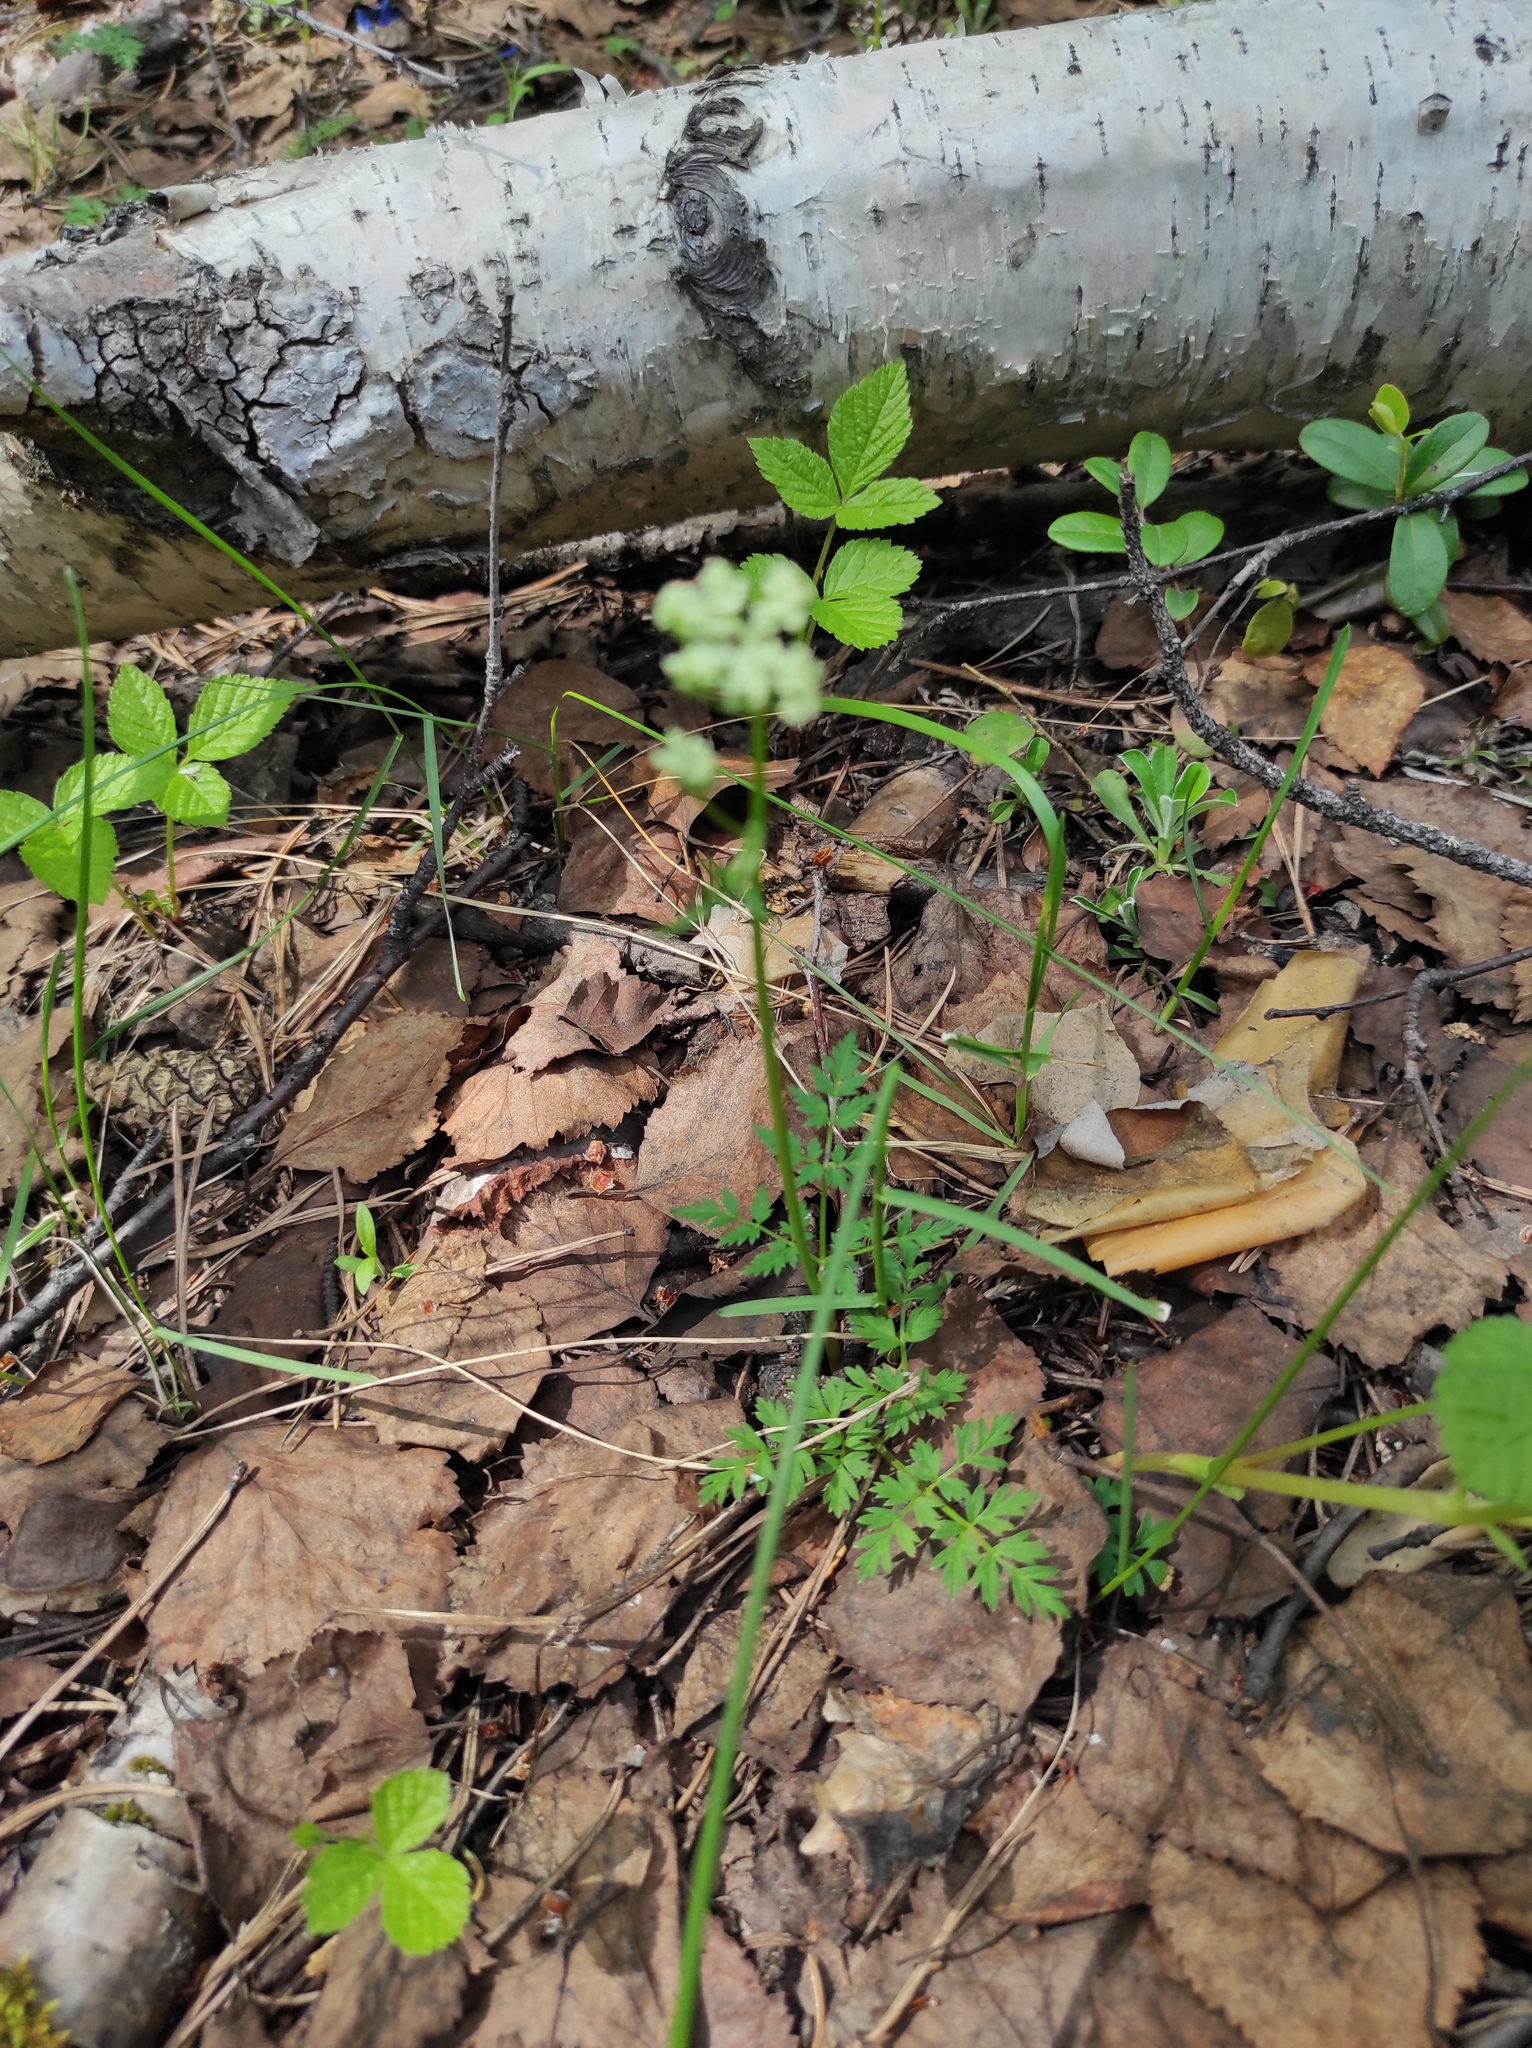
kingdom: Plantae
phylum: Tracheophyta
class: Magnoliopsida
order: Rosales
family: Rosaceae
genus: Rubus
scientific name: Rubus saxatilis
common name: Stone bramble
